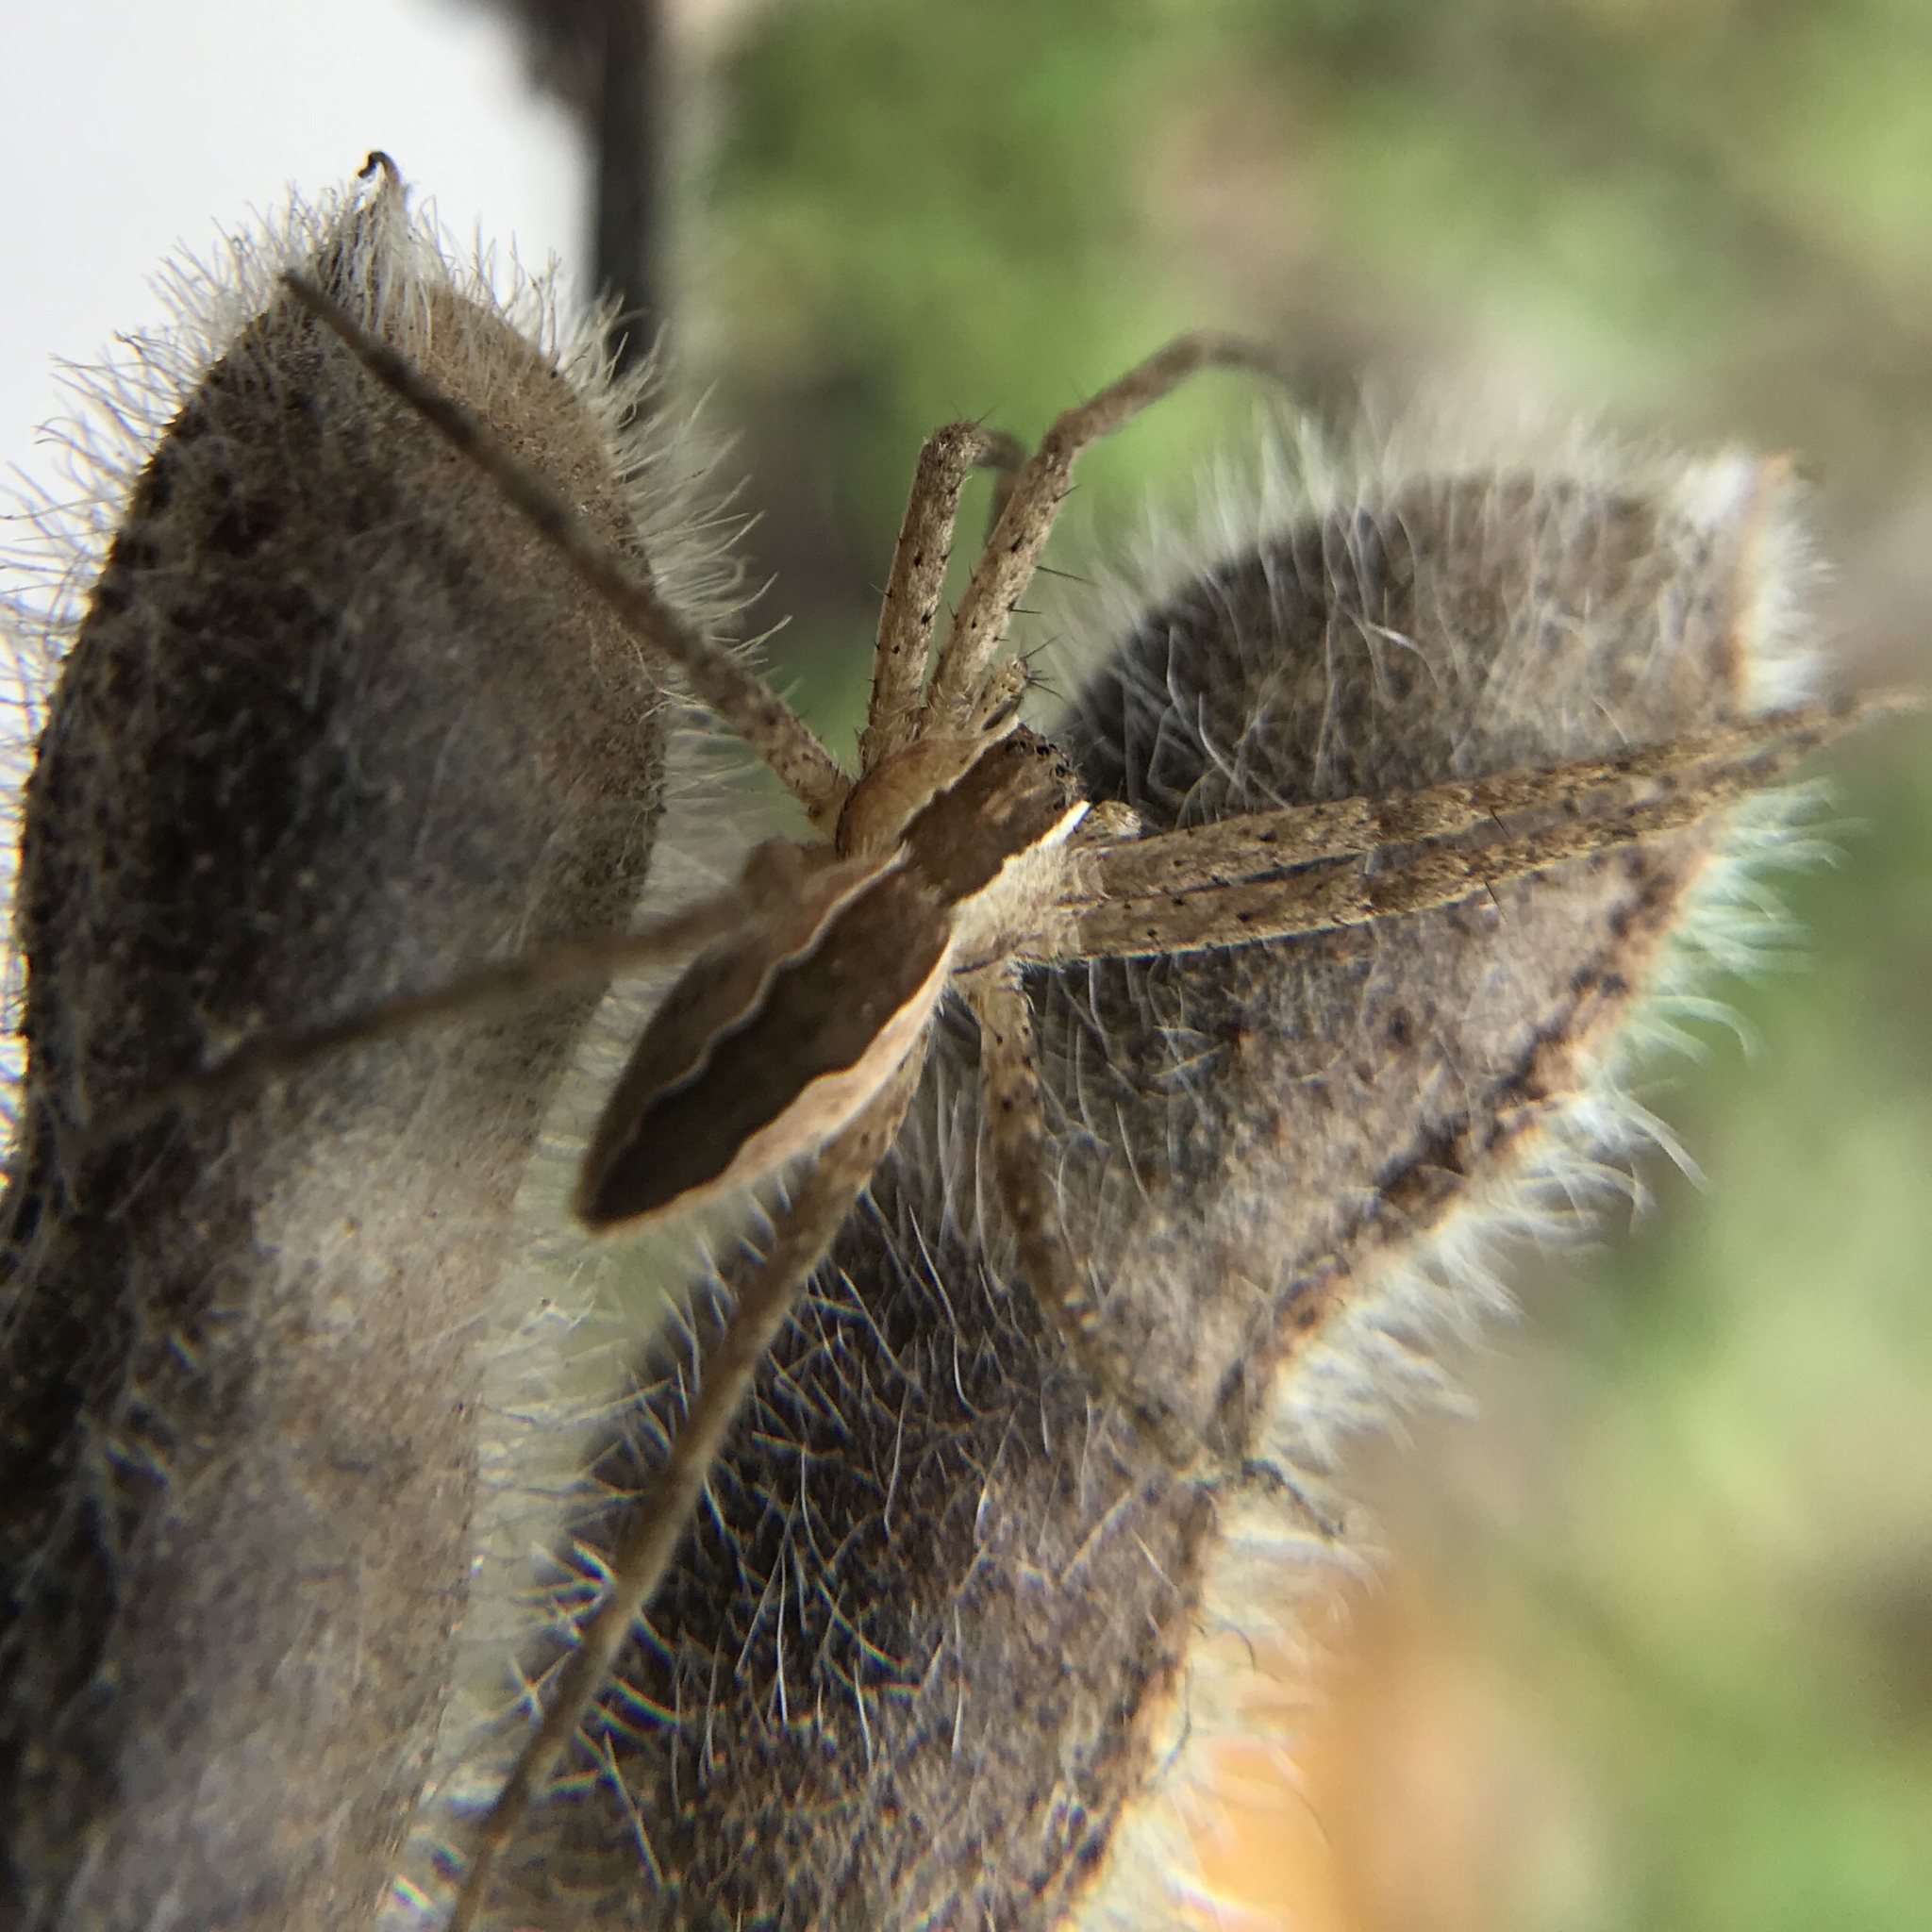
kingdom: Animalia
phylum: Arthropoda
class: Arachnida
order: Araneae
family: Pisauridae
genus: Pisaurina
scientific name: Pisaurina mira
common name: American nursery web spider
